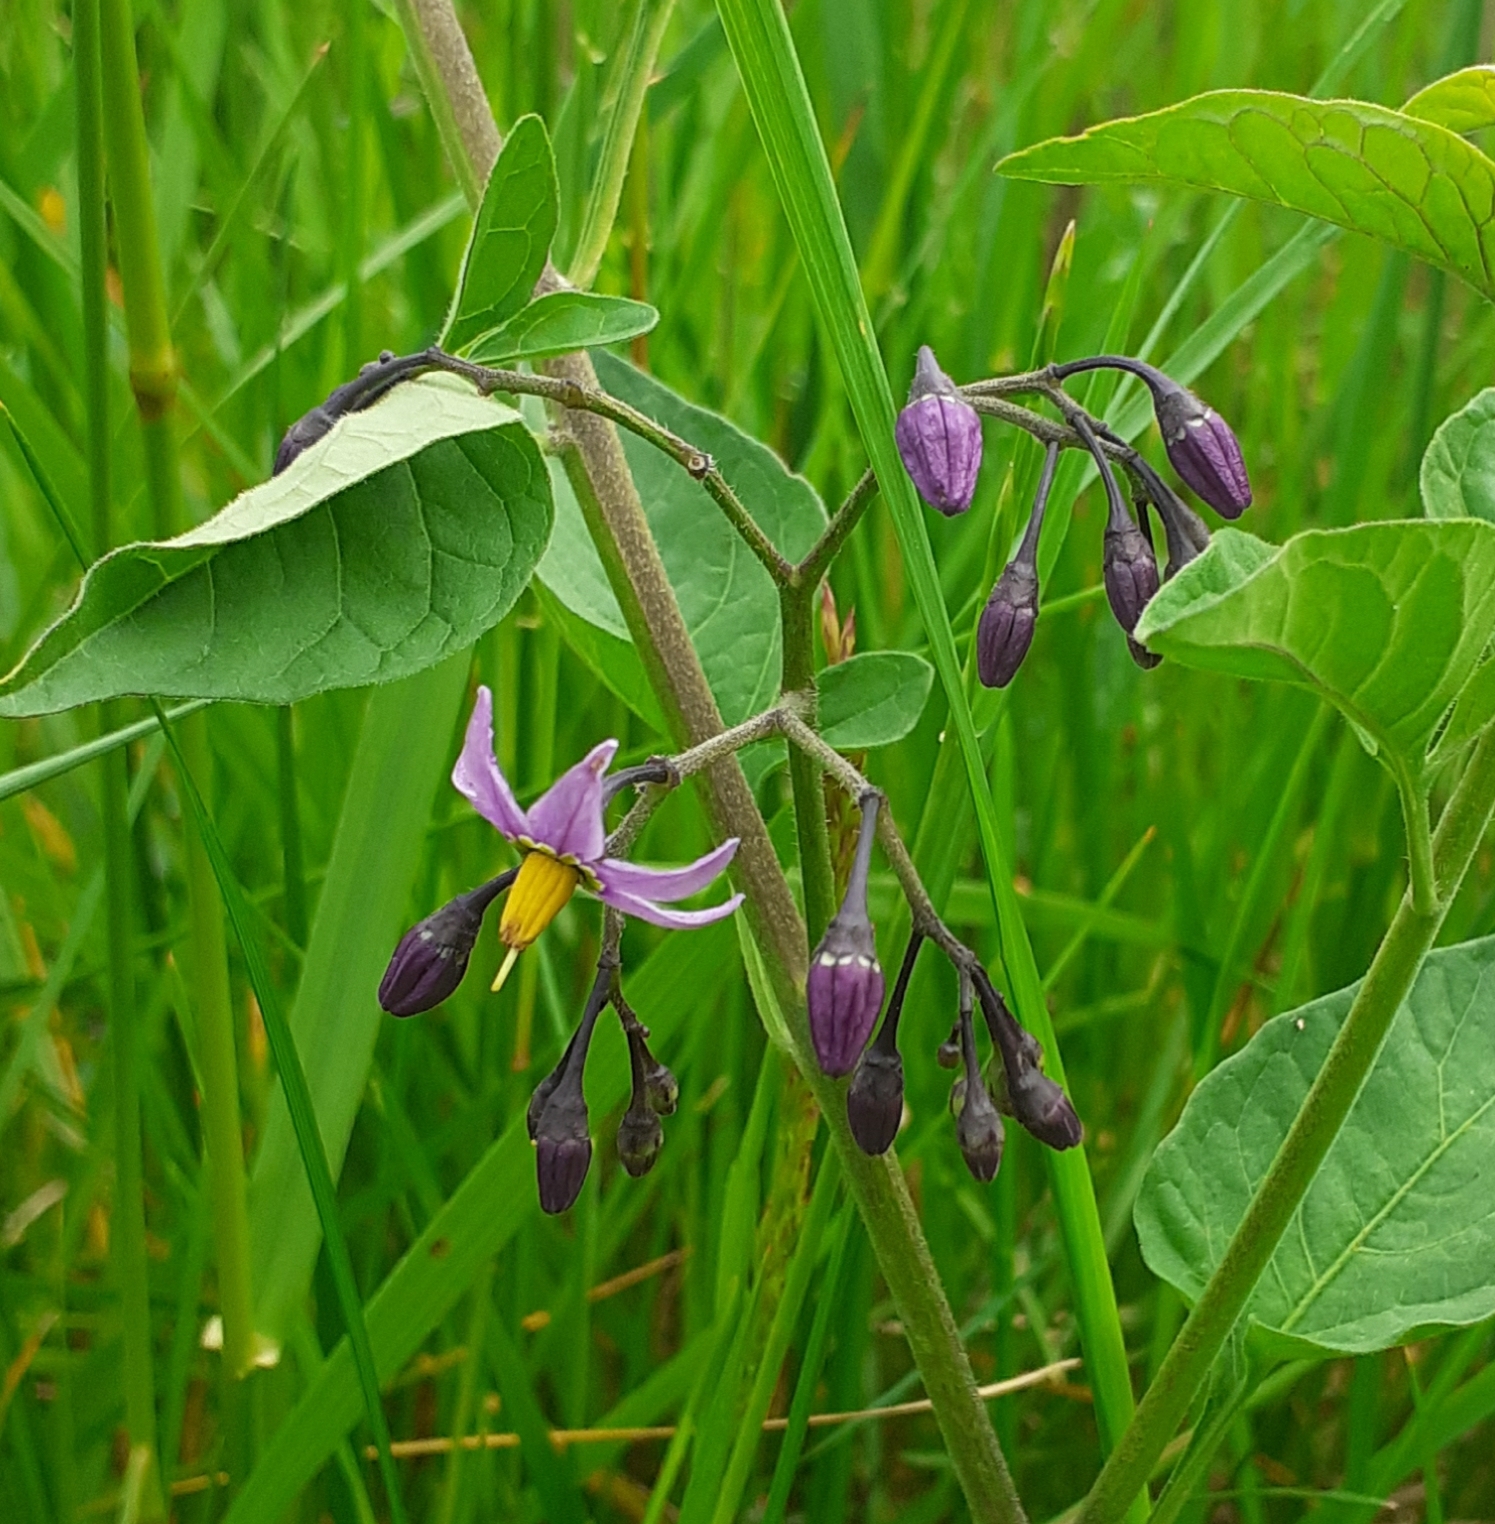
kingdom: Plantae
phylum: Tracheophyta
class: Magnoliopsida
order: Solanales
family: Solanaceae
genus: Solanum
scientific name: Solanum dulcamara
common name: Climbing nightshade
